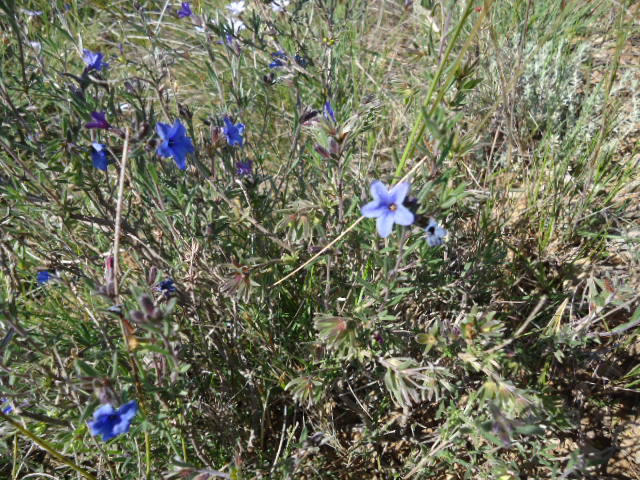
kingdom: Plantae
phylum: Tracheophyta
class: Magnoliopsida
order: Boraginales
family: Boraginaceae
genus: Lithodora
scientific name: Lithodora fruticosa
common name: Shrubby gromwell
